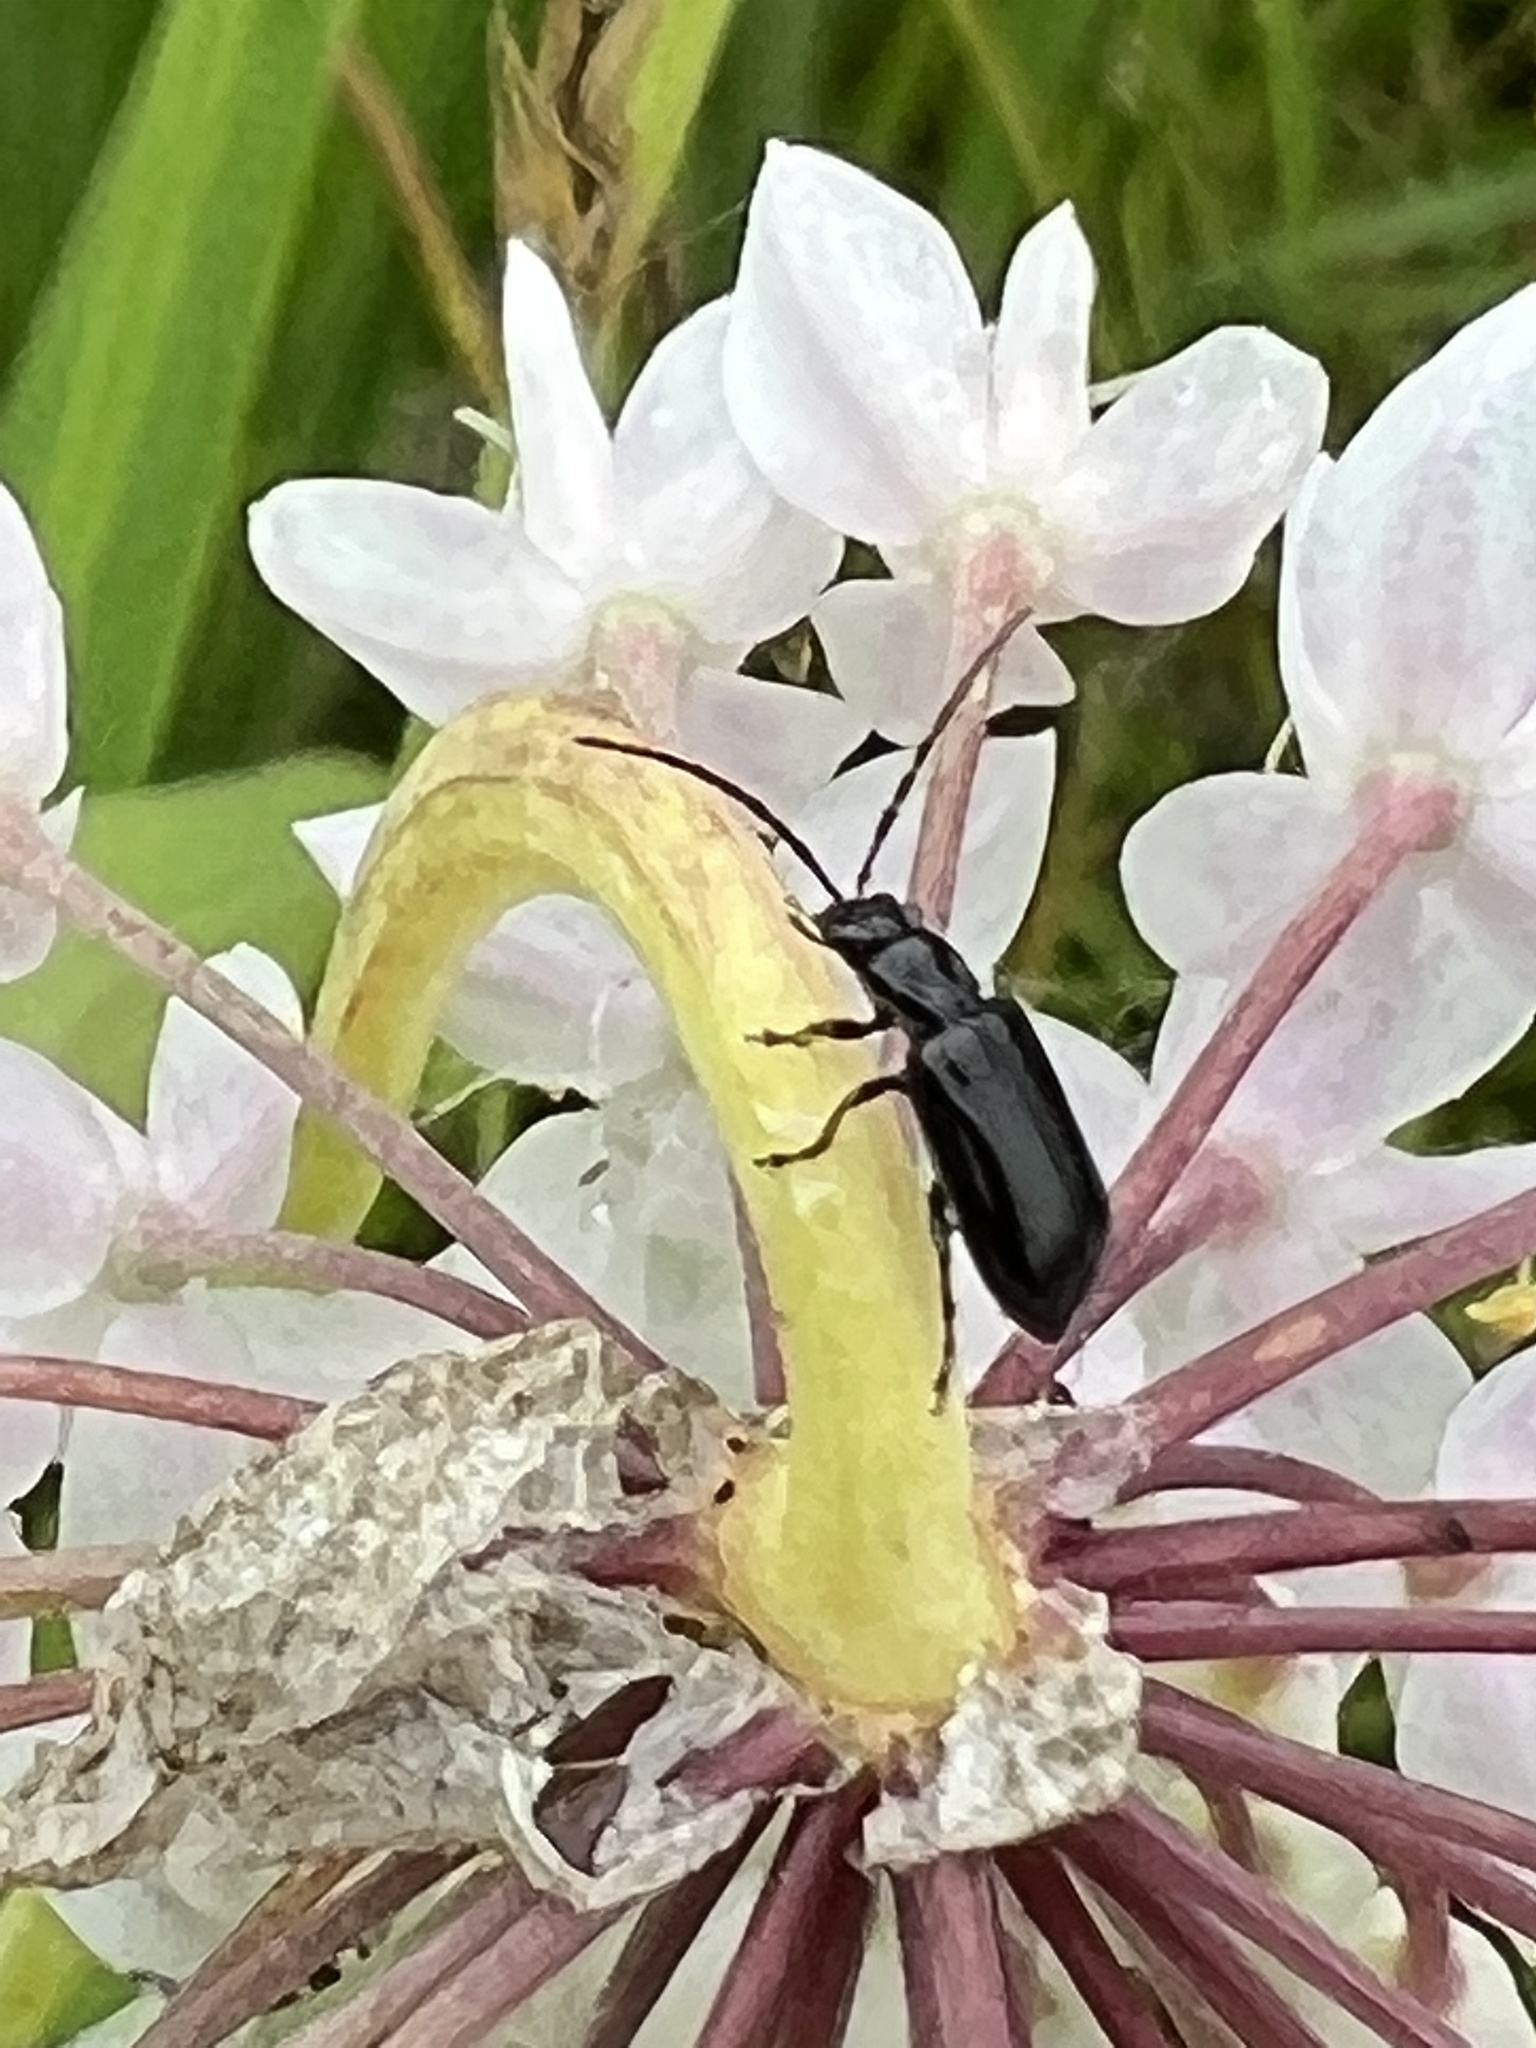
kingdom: Animalia
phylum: Arthropoda
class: Insecta
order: Coleoptera
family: Chrysomelidae
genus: Diabrotica
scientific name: Diabrotica cristata
